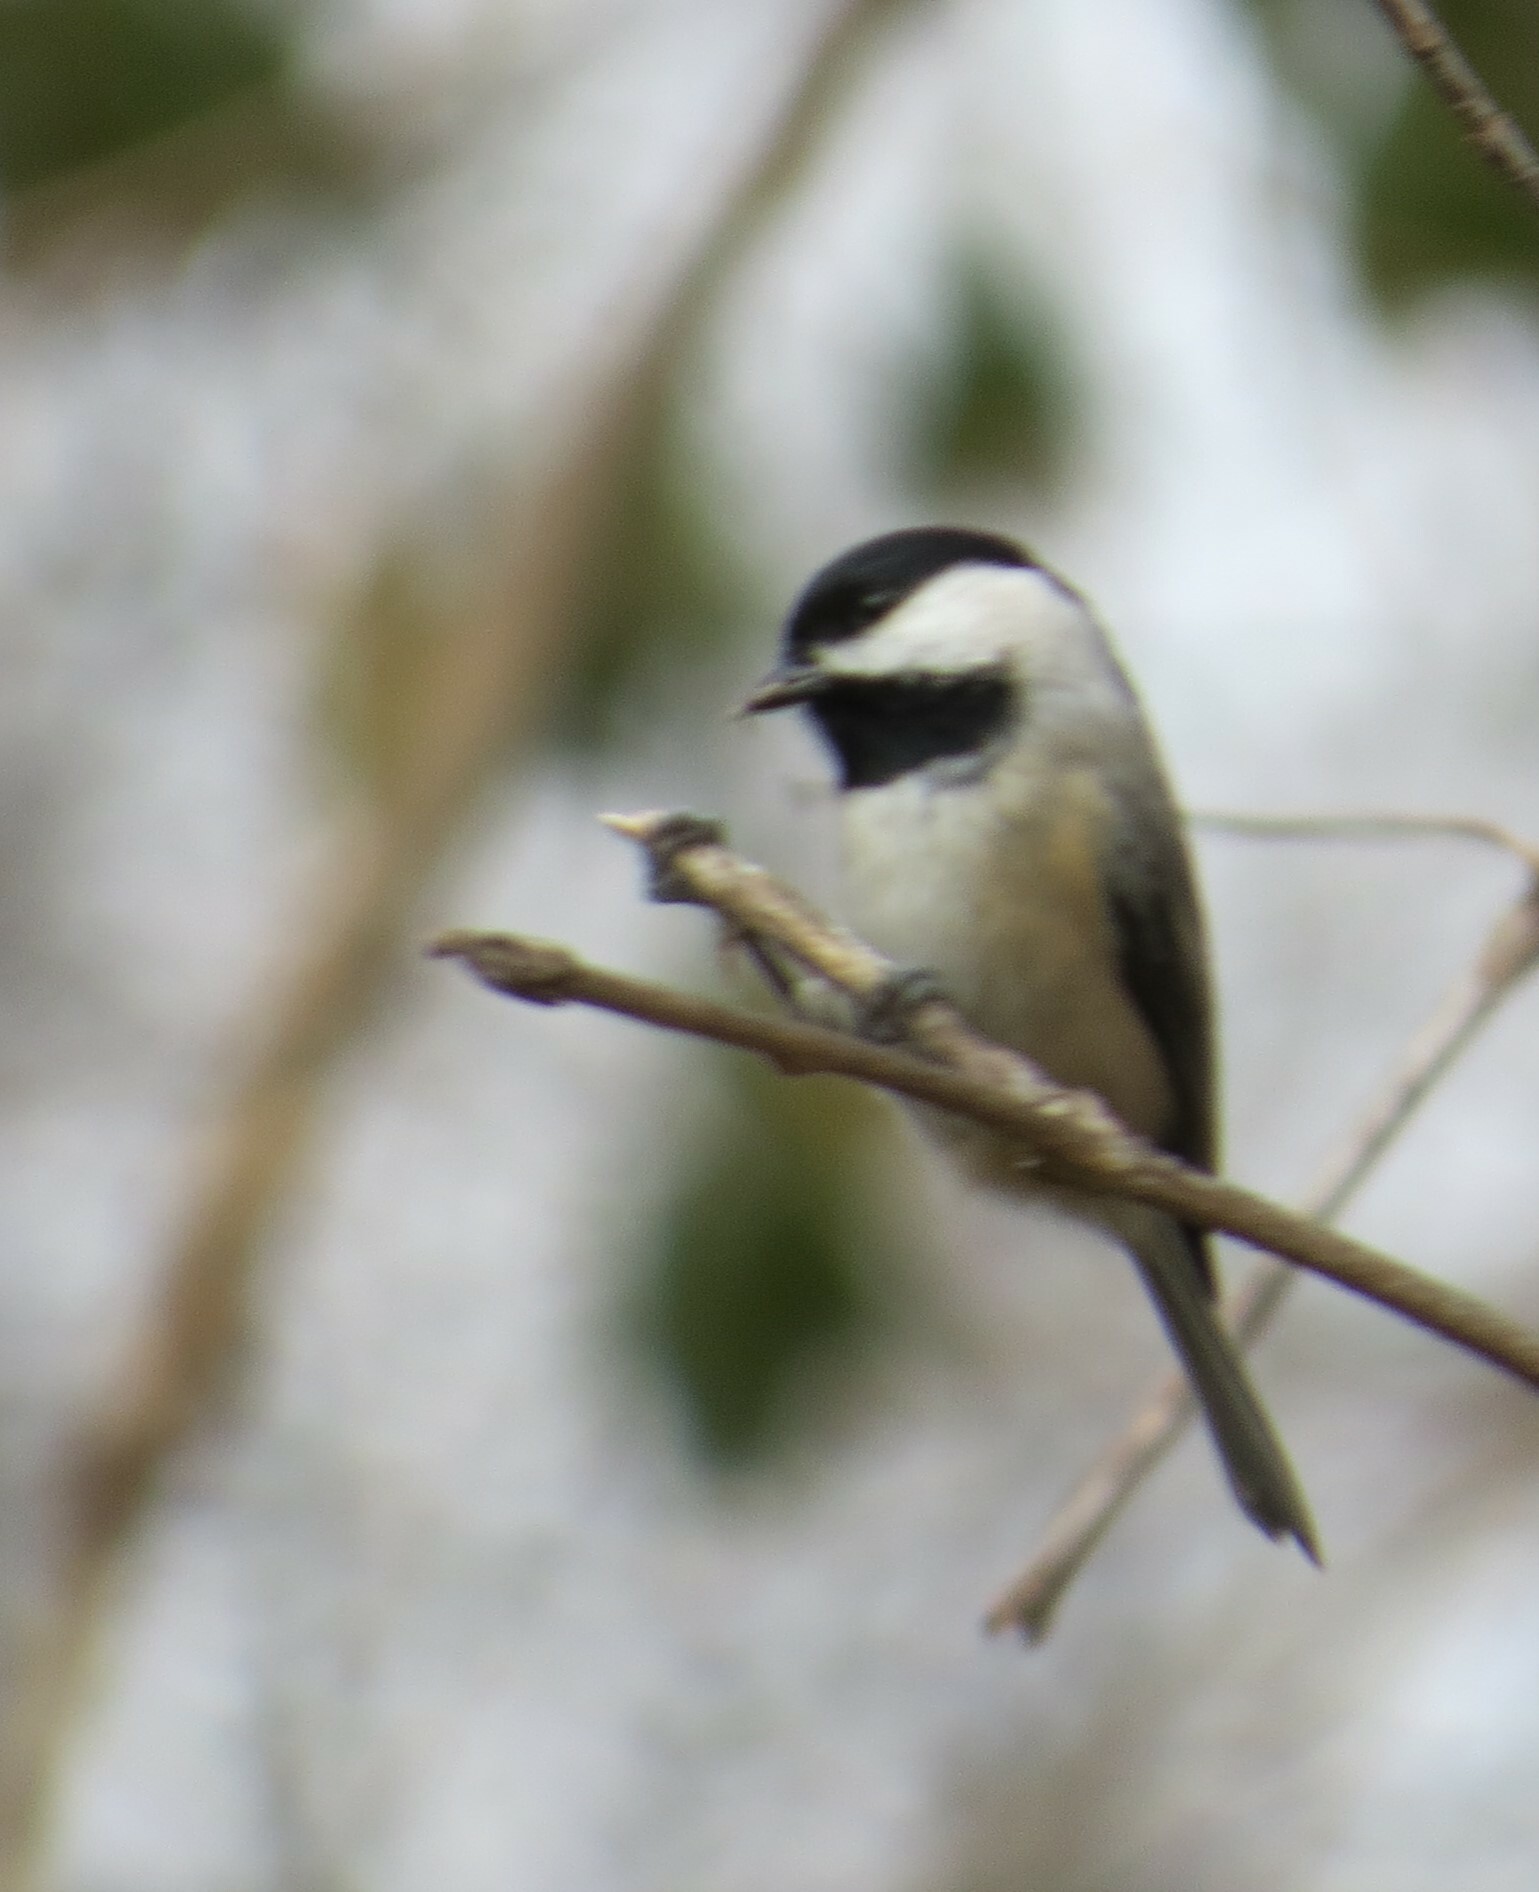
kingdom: Animalia
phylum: Chordata
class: Aves
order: Passeriformes
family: Paridae
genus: Poecile
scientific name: Poecile carolinensis
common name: Carolina chickadee
